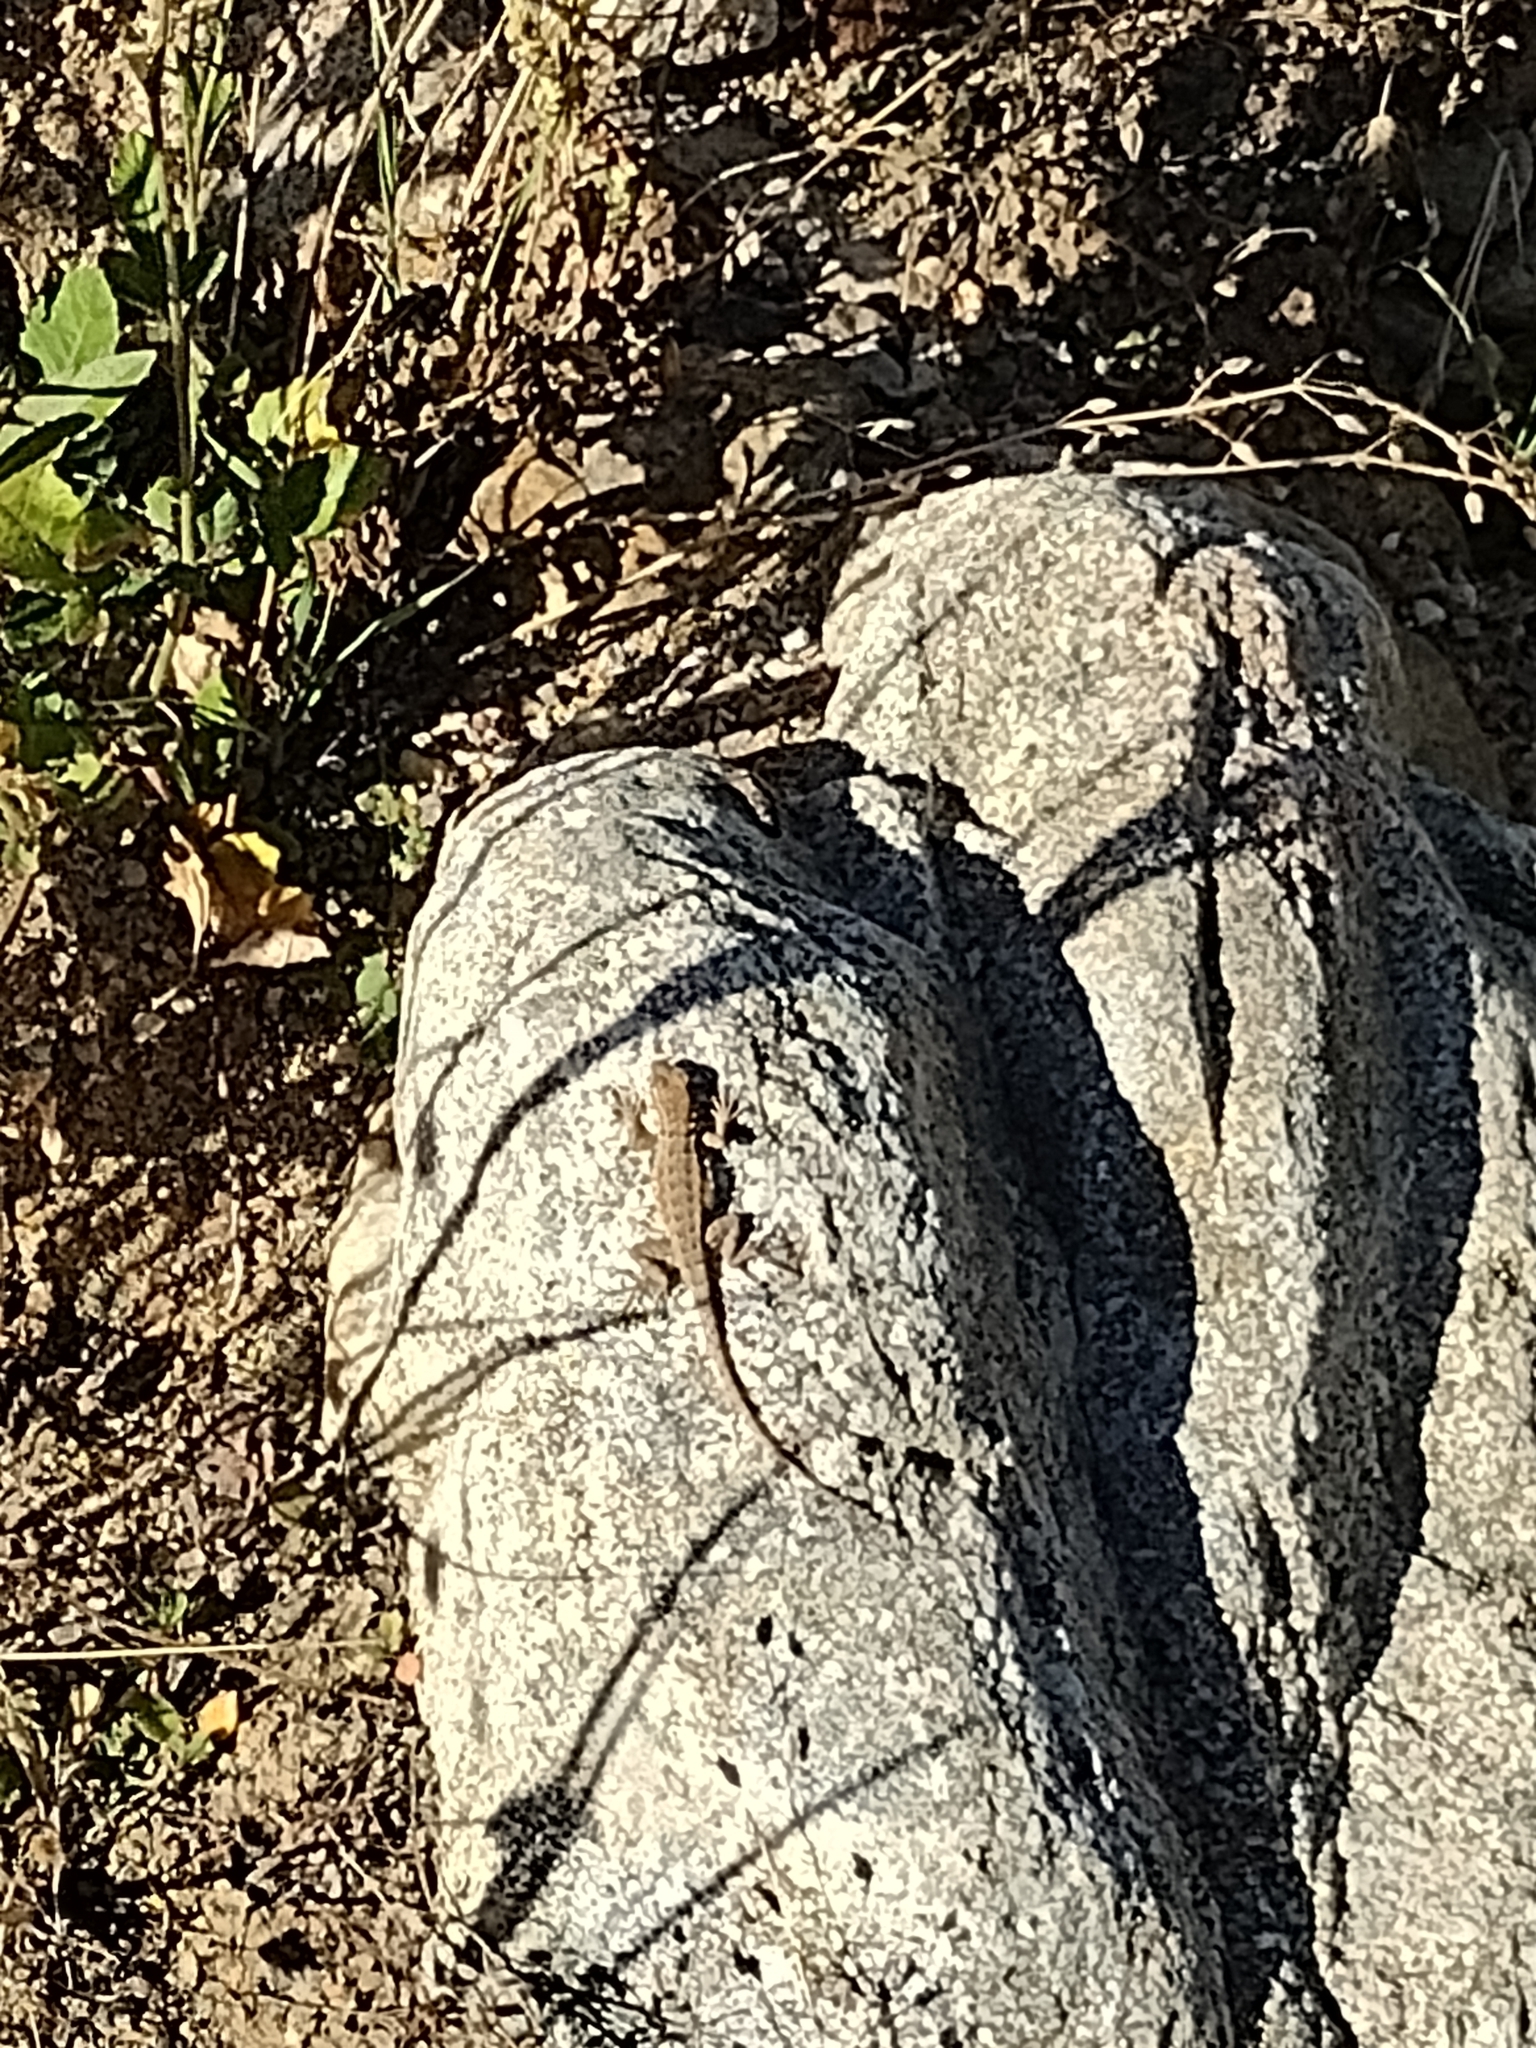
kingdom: Animalia
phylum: Chordata
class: Squamata
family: Phrynosomatidae
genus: Uta
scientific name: Uta stansburiana
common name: Side-blotched lizard
